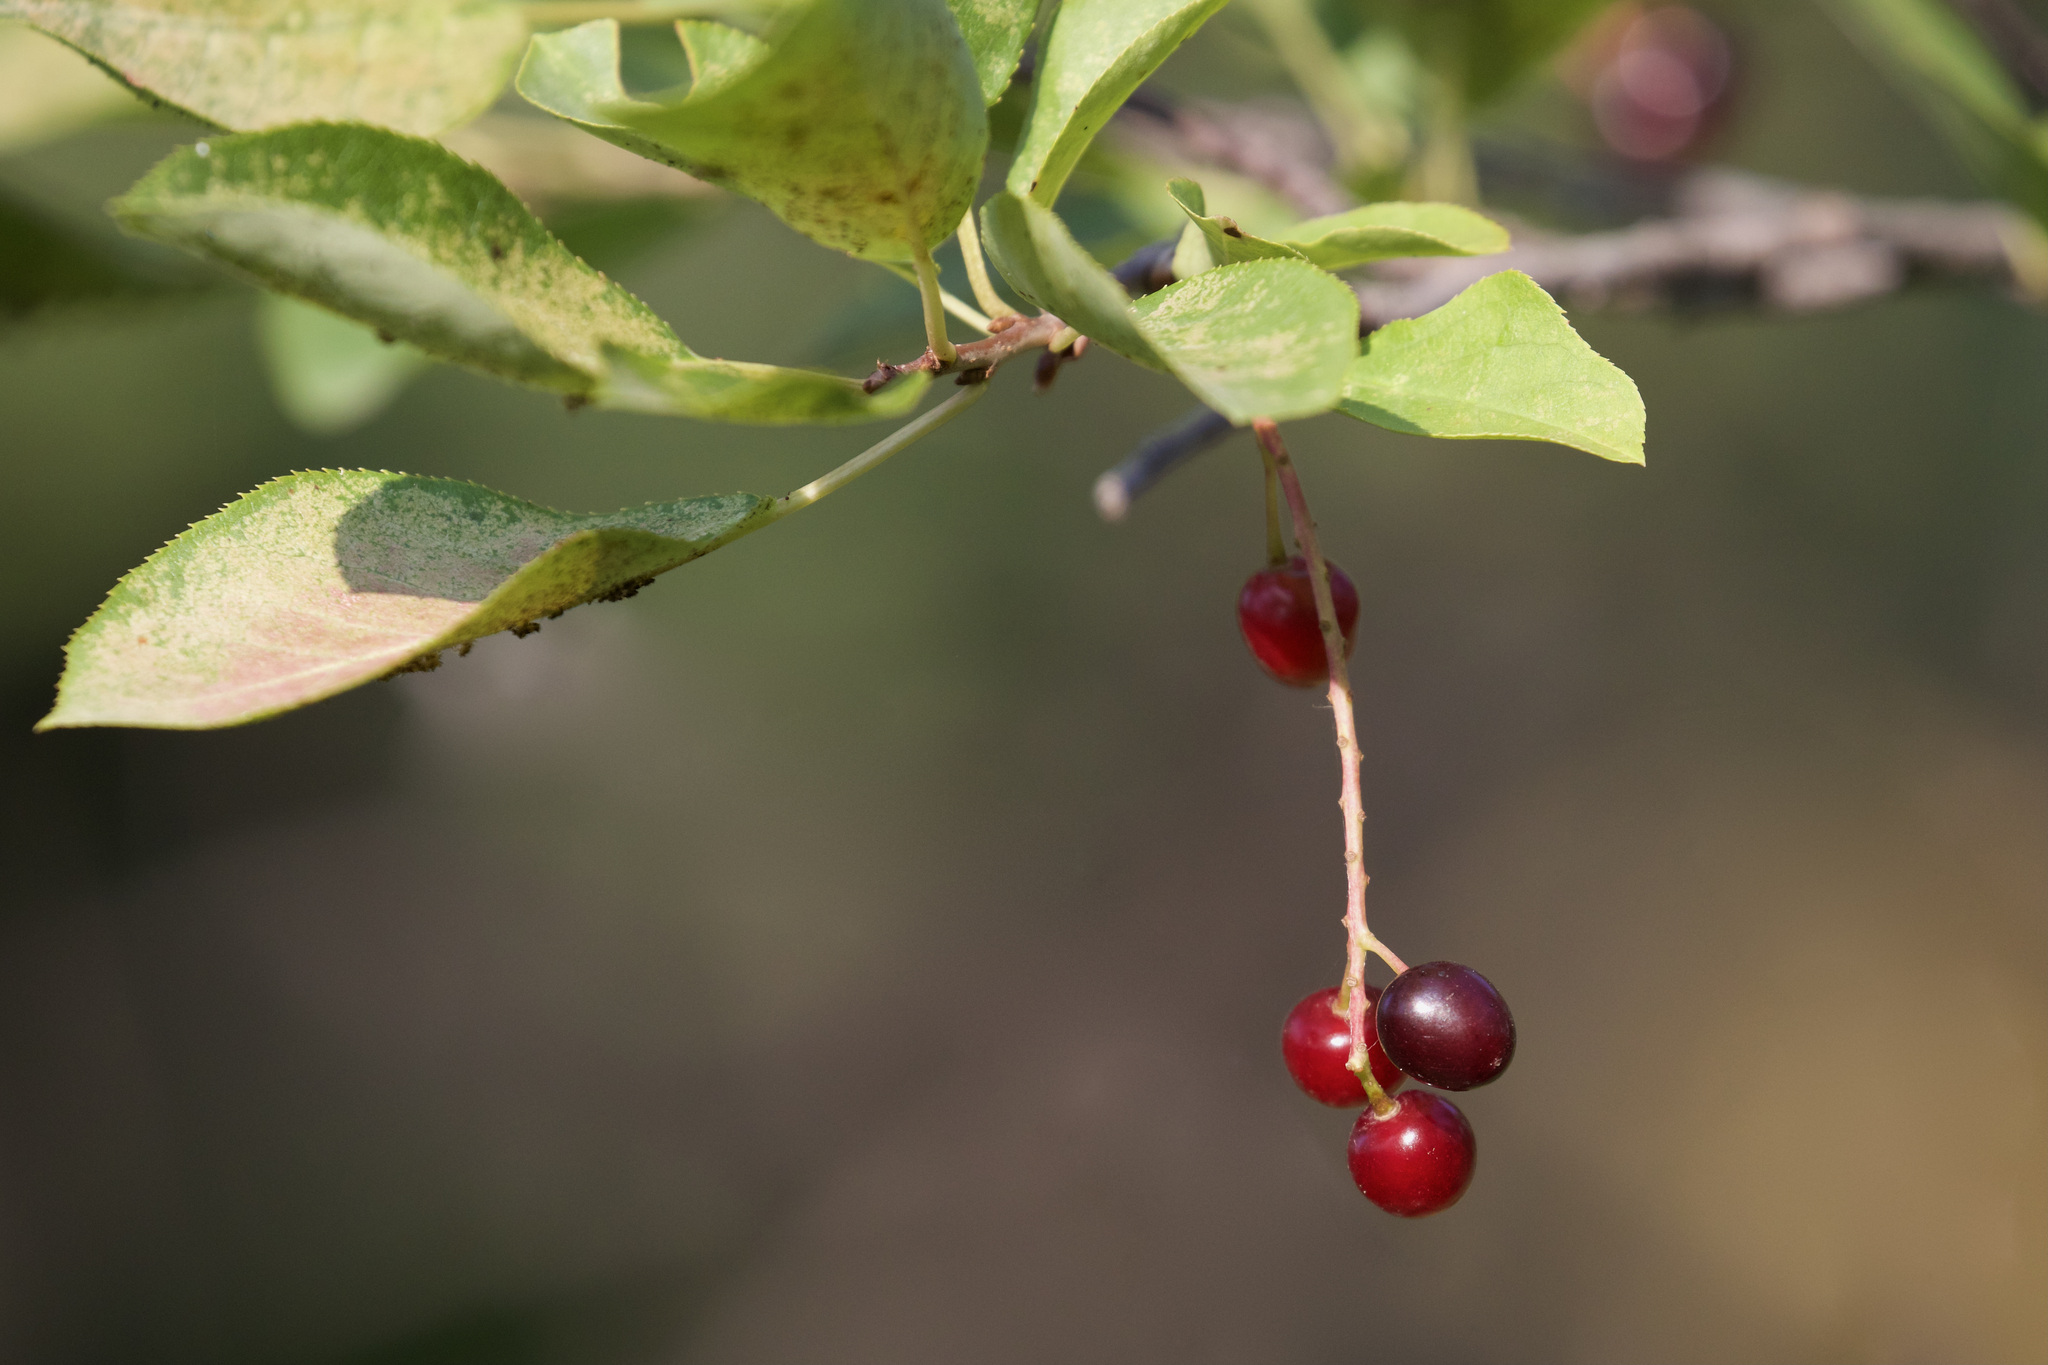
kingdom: Plantae
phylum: Tracheophyta
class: Magnoliopsida
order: Rosales
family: Rosaceae
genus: Prunus
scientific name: Prunus virginiana
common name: Chokecherry
